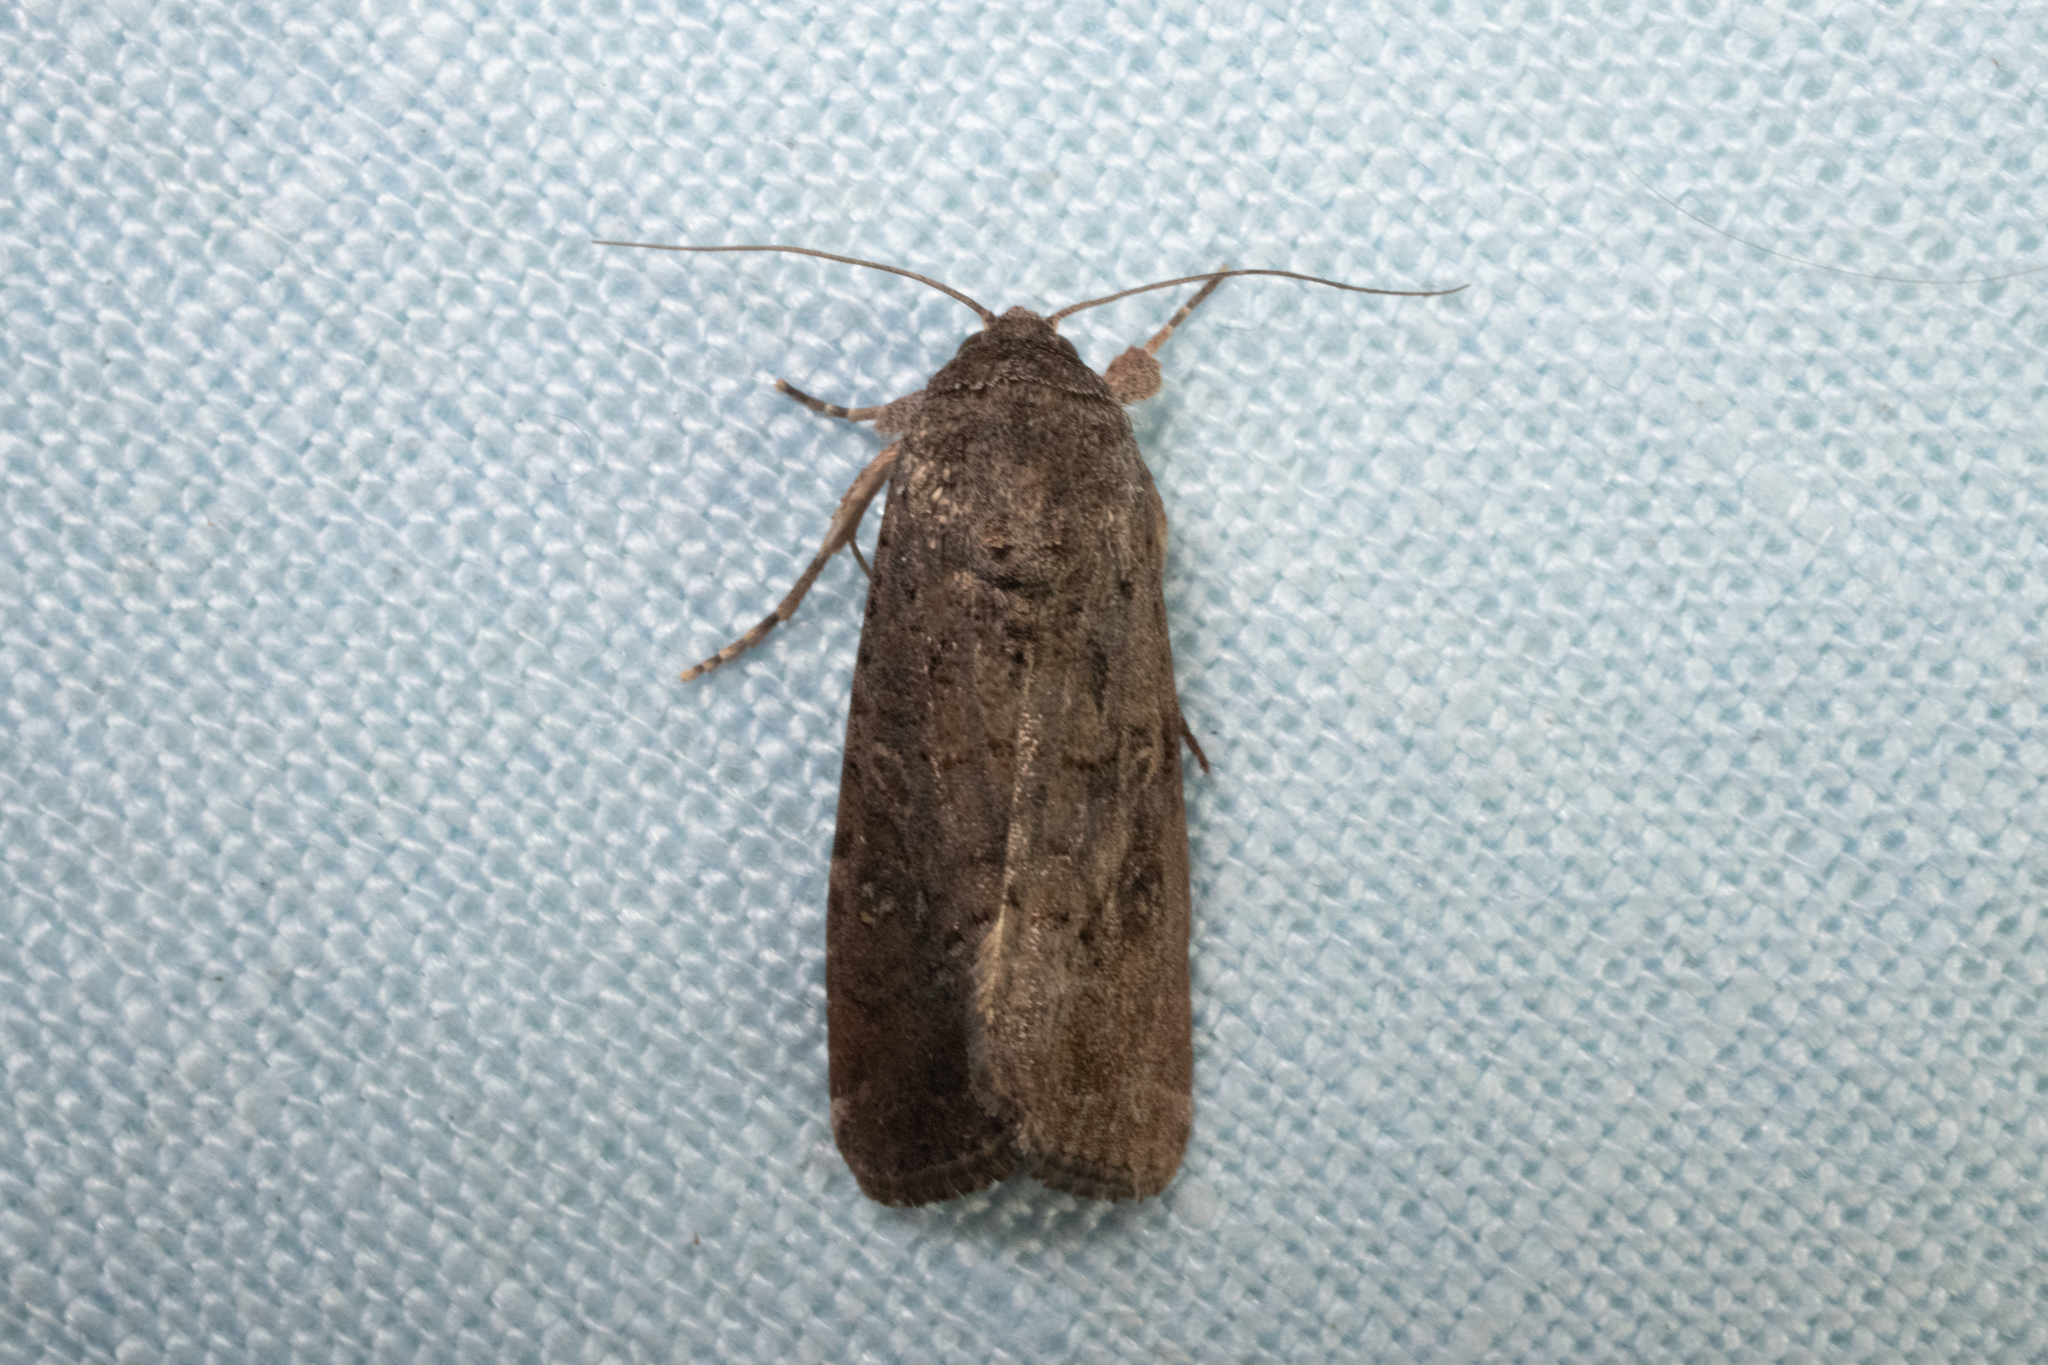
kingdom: Animalia
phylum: Arthropoda
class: Insecta
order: Lepidoptera
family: Noctuidae
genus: Spodoptera
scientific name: Spodoptera frugiperda
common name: Fall armyworm
